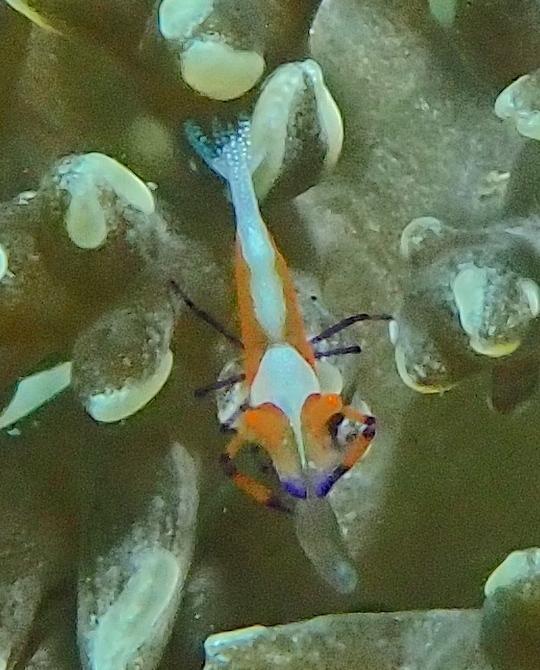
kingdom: Animalia
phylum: Arthropoda
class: Malacostraca
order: Decapoda
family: Palaemonidae
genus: Periclimenes
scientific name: Periclimenes rex
